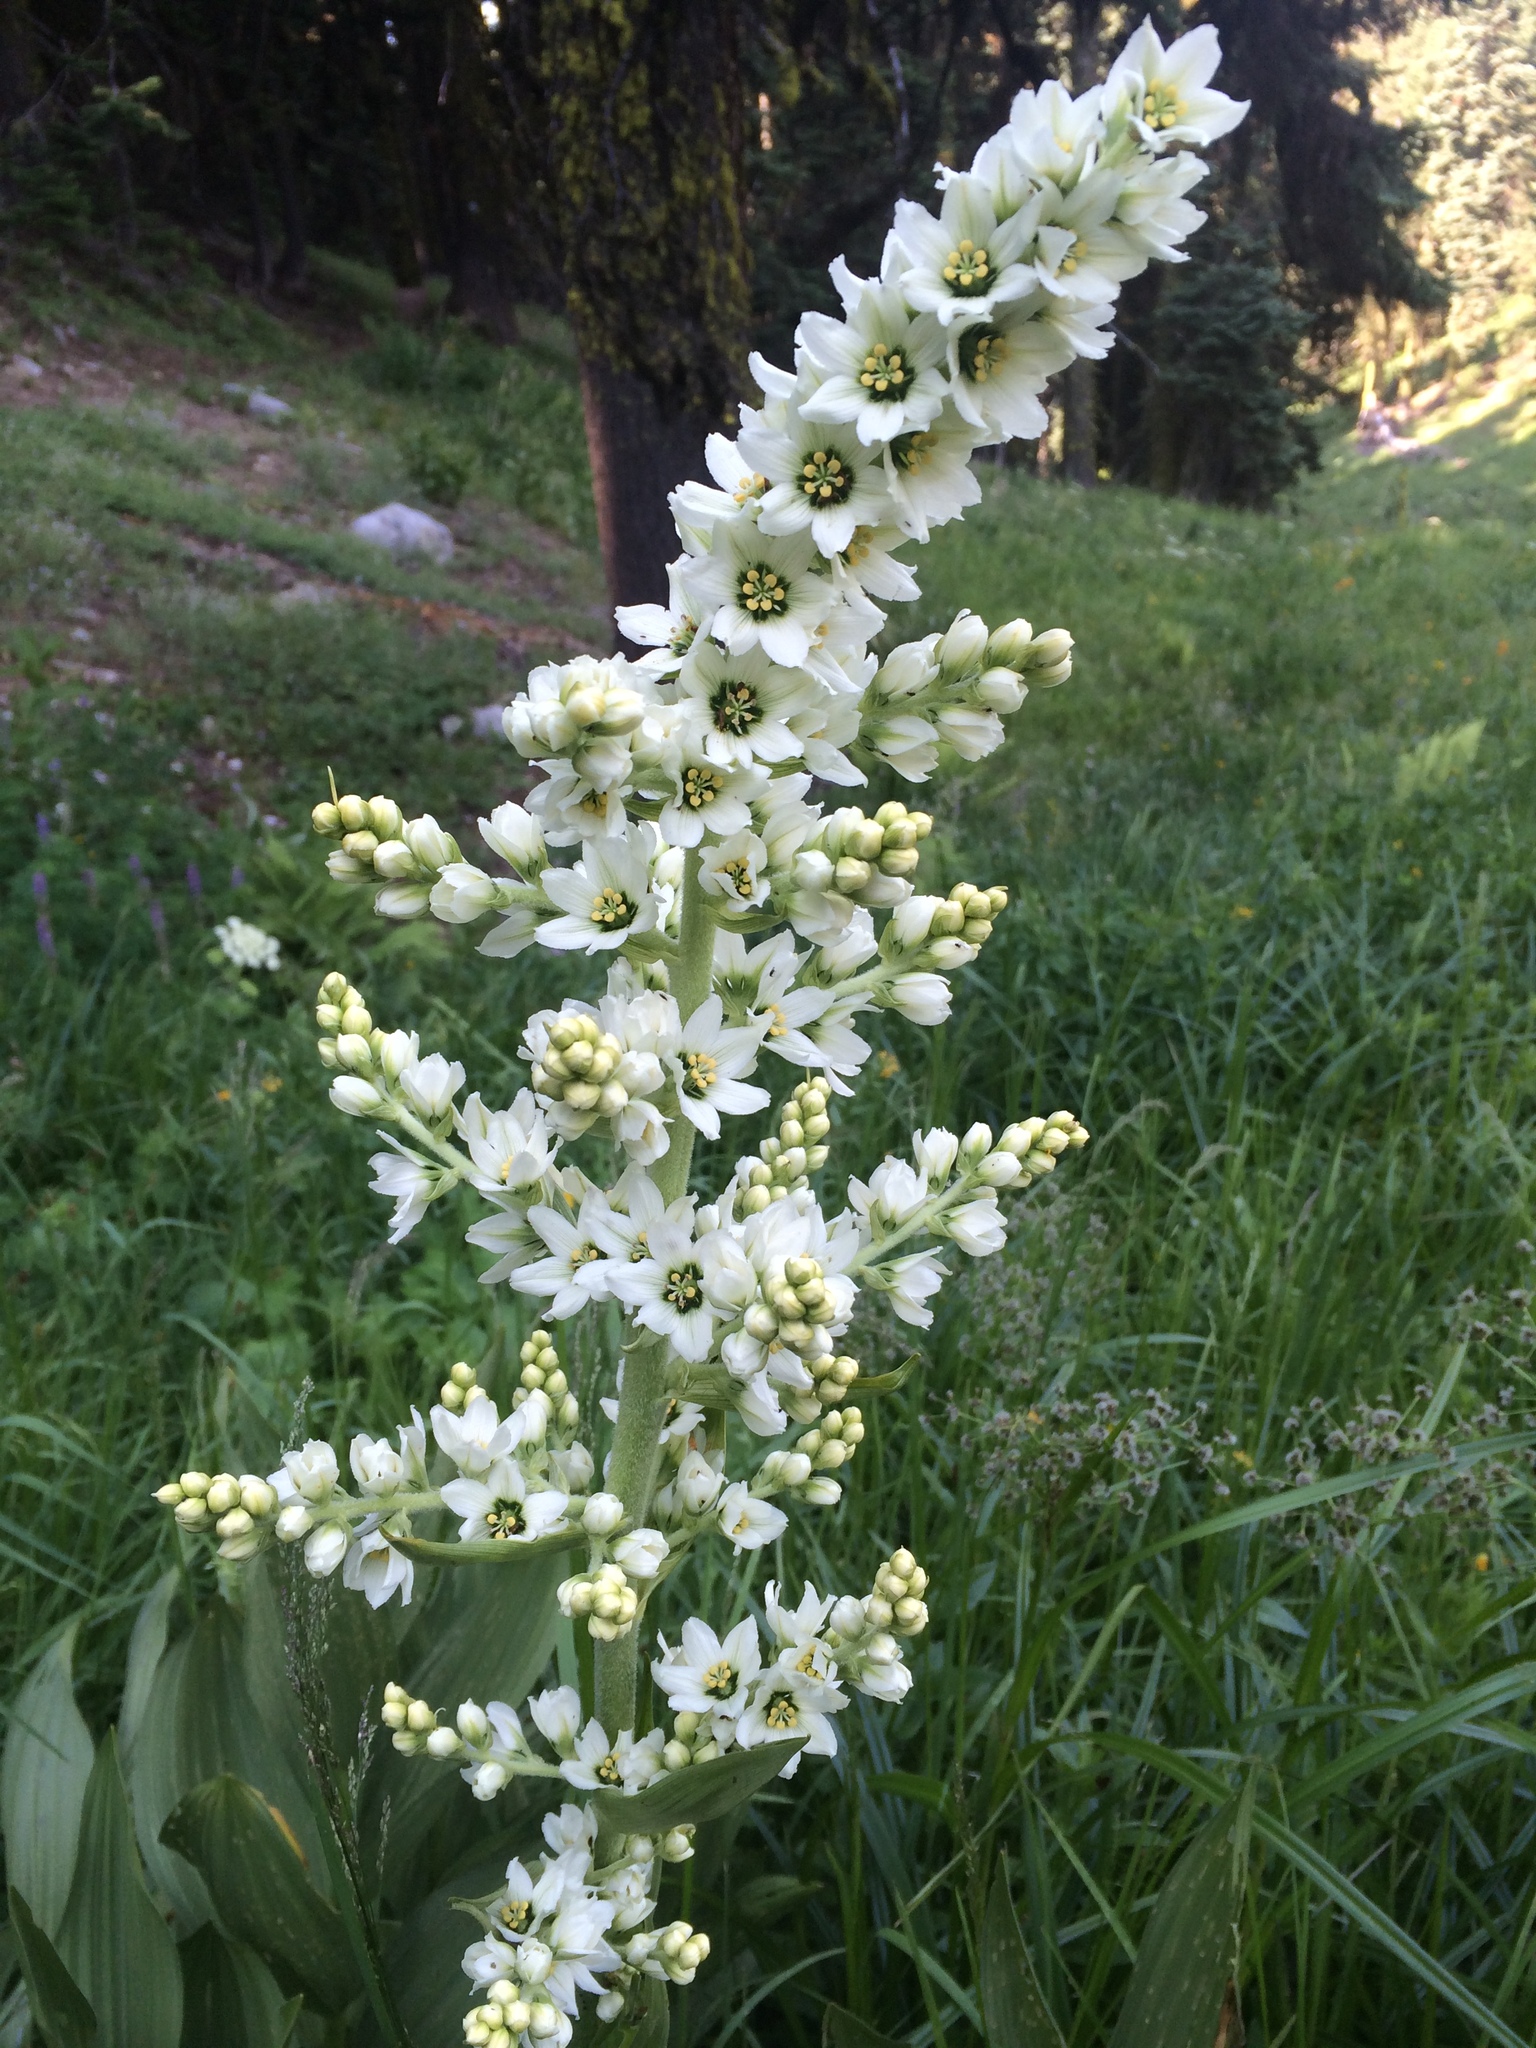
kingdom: Plantae
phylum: Tracheophyta
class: Liliopsida
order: Liliales
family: Melanthiaceae
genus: Veratrum
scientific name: Veratrum californicum
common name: California veratrum
